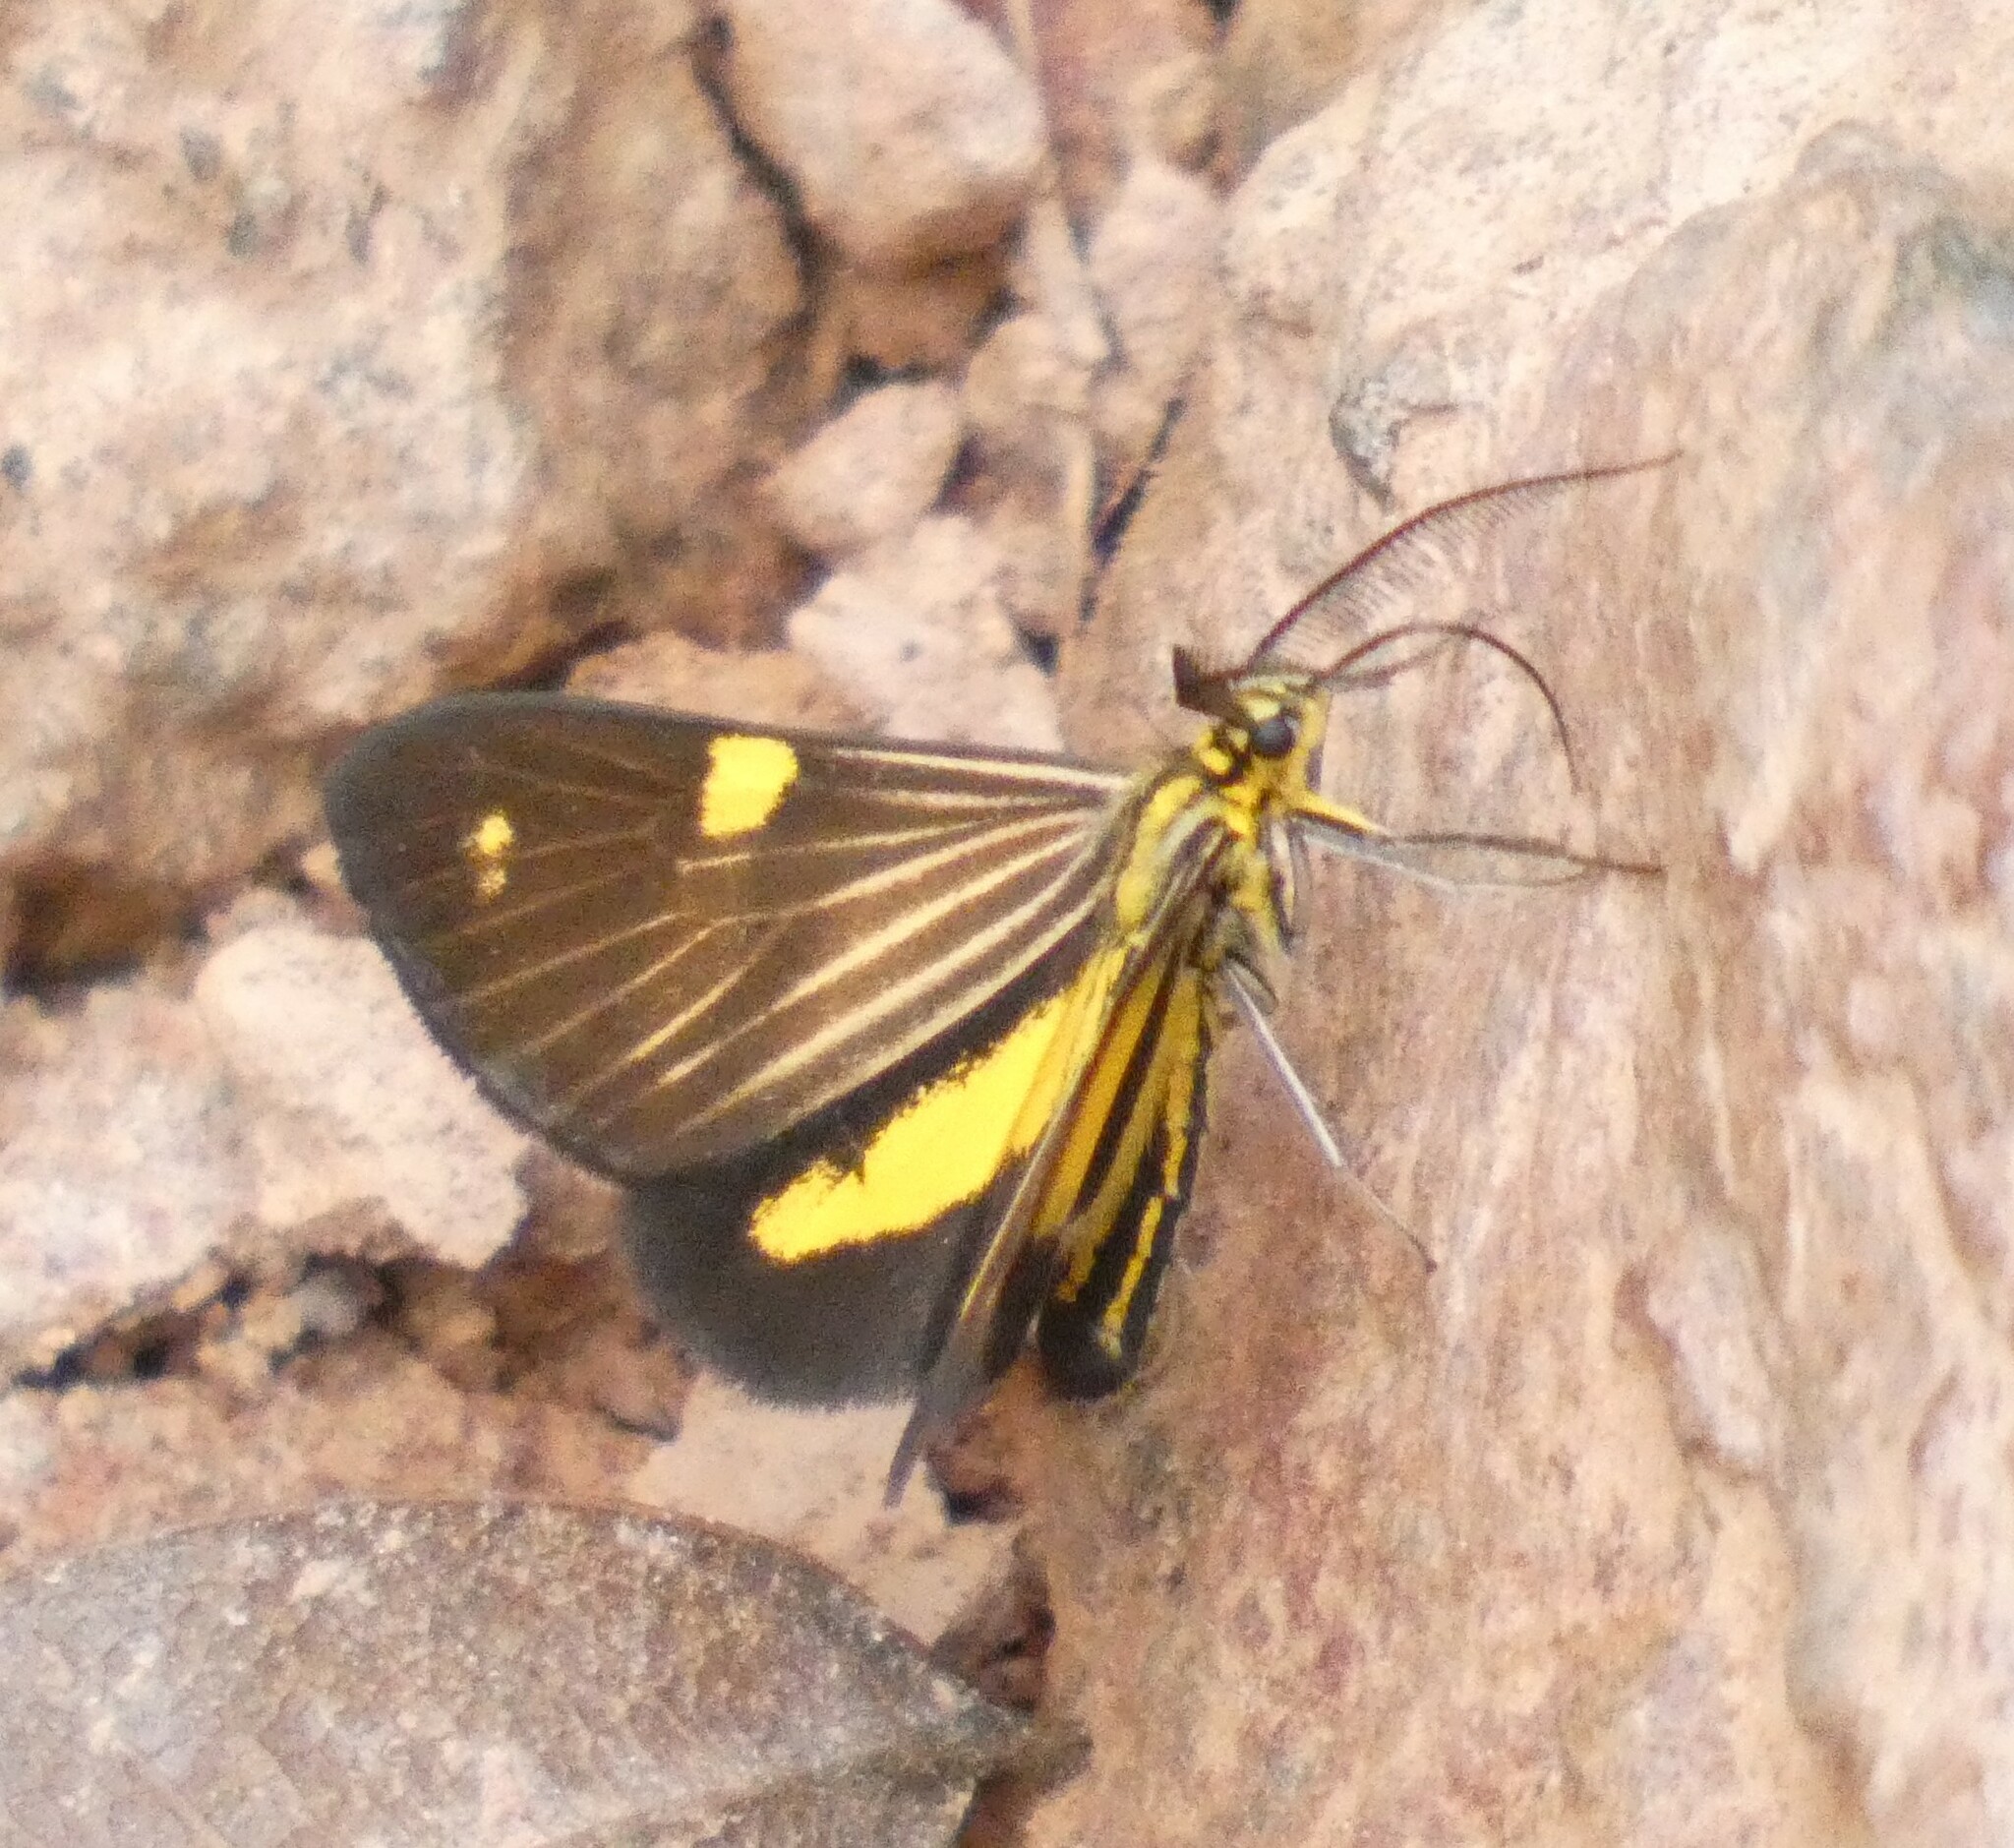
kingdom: Animalia
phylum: Arthropoda
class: Insecta
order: Lepidoptera
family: Notodontidae
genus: Phaeochlaena
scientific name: Phaeochlaena
